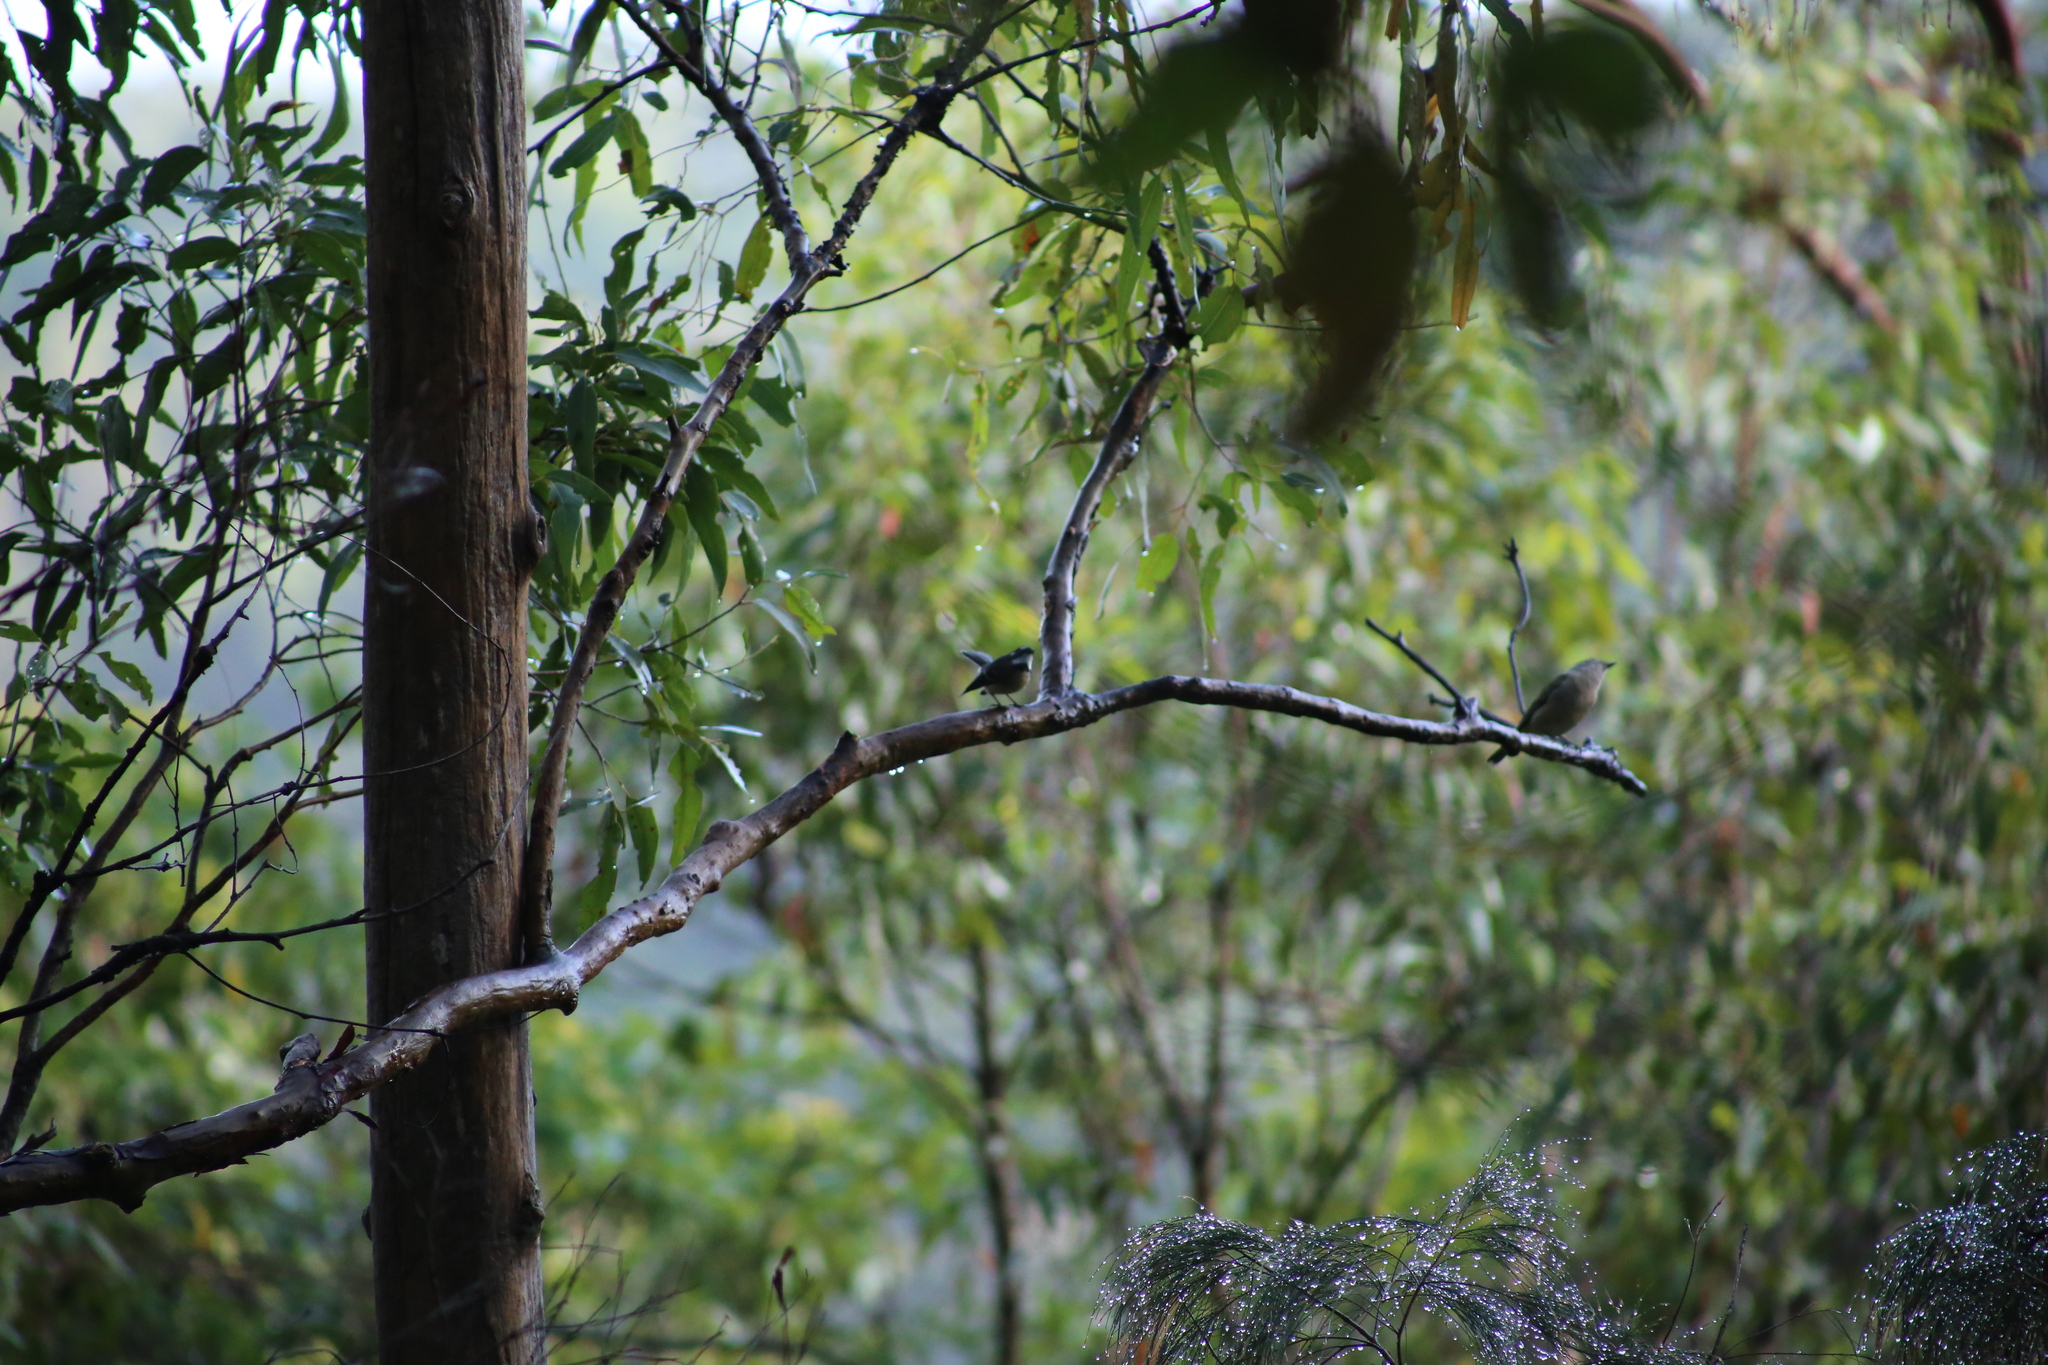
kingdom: Animalia
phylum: Chordata
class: Aves
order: Passeriformes
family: Pachycephalidae
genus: Pachycephala
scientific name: Pachycephala pectoralis
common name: Australian golden whistler
